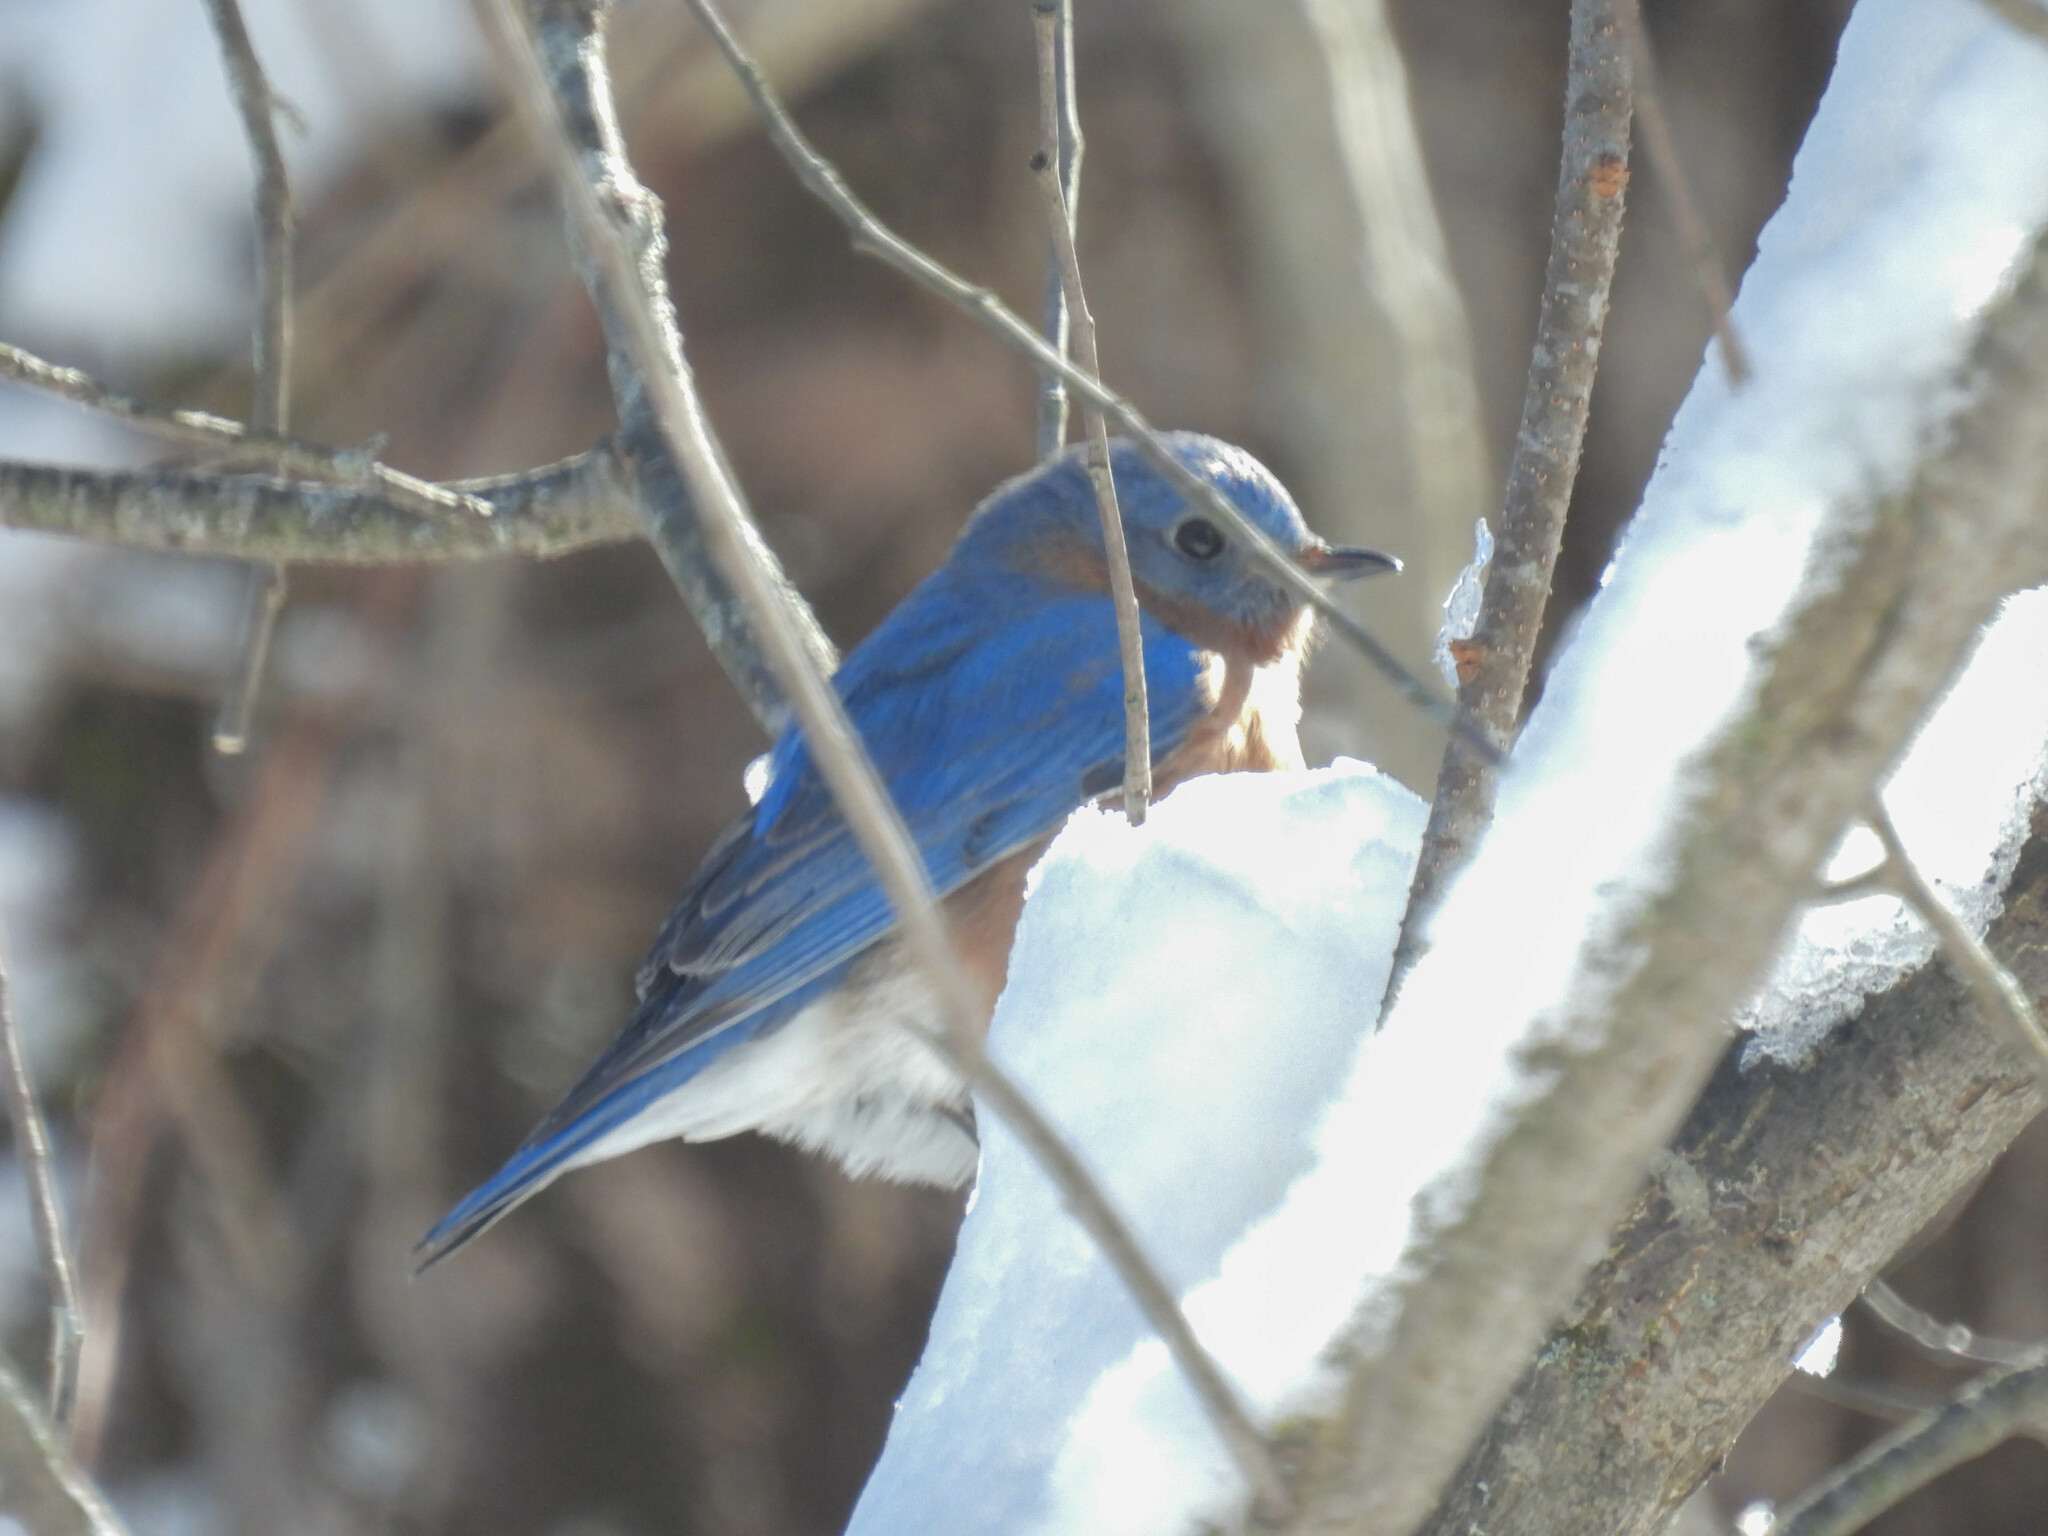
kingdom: Animalia
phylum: Chordata
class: Aves
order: Passeriformes
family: Turdidae
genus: Sialia
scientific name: Sialia sialis
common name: Eastern bluebird
